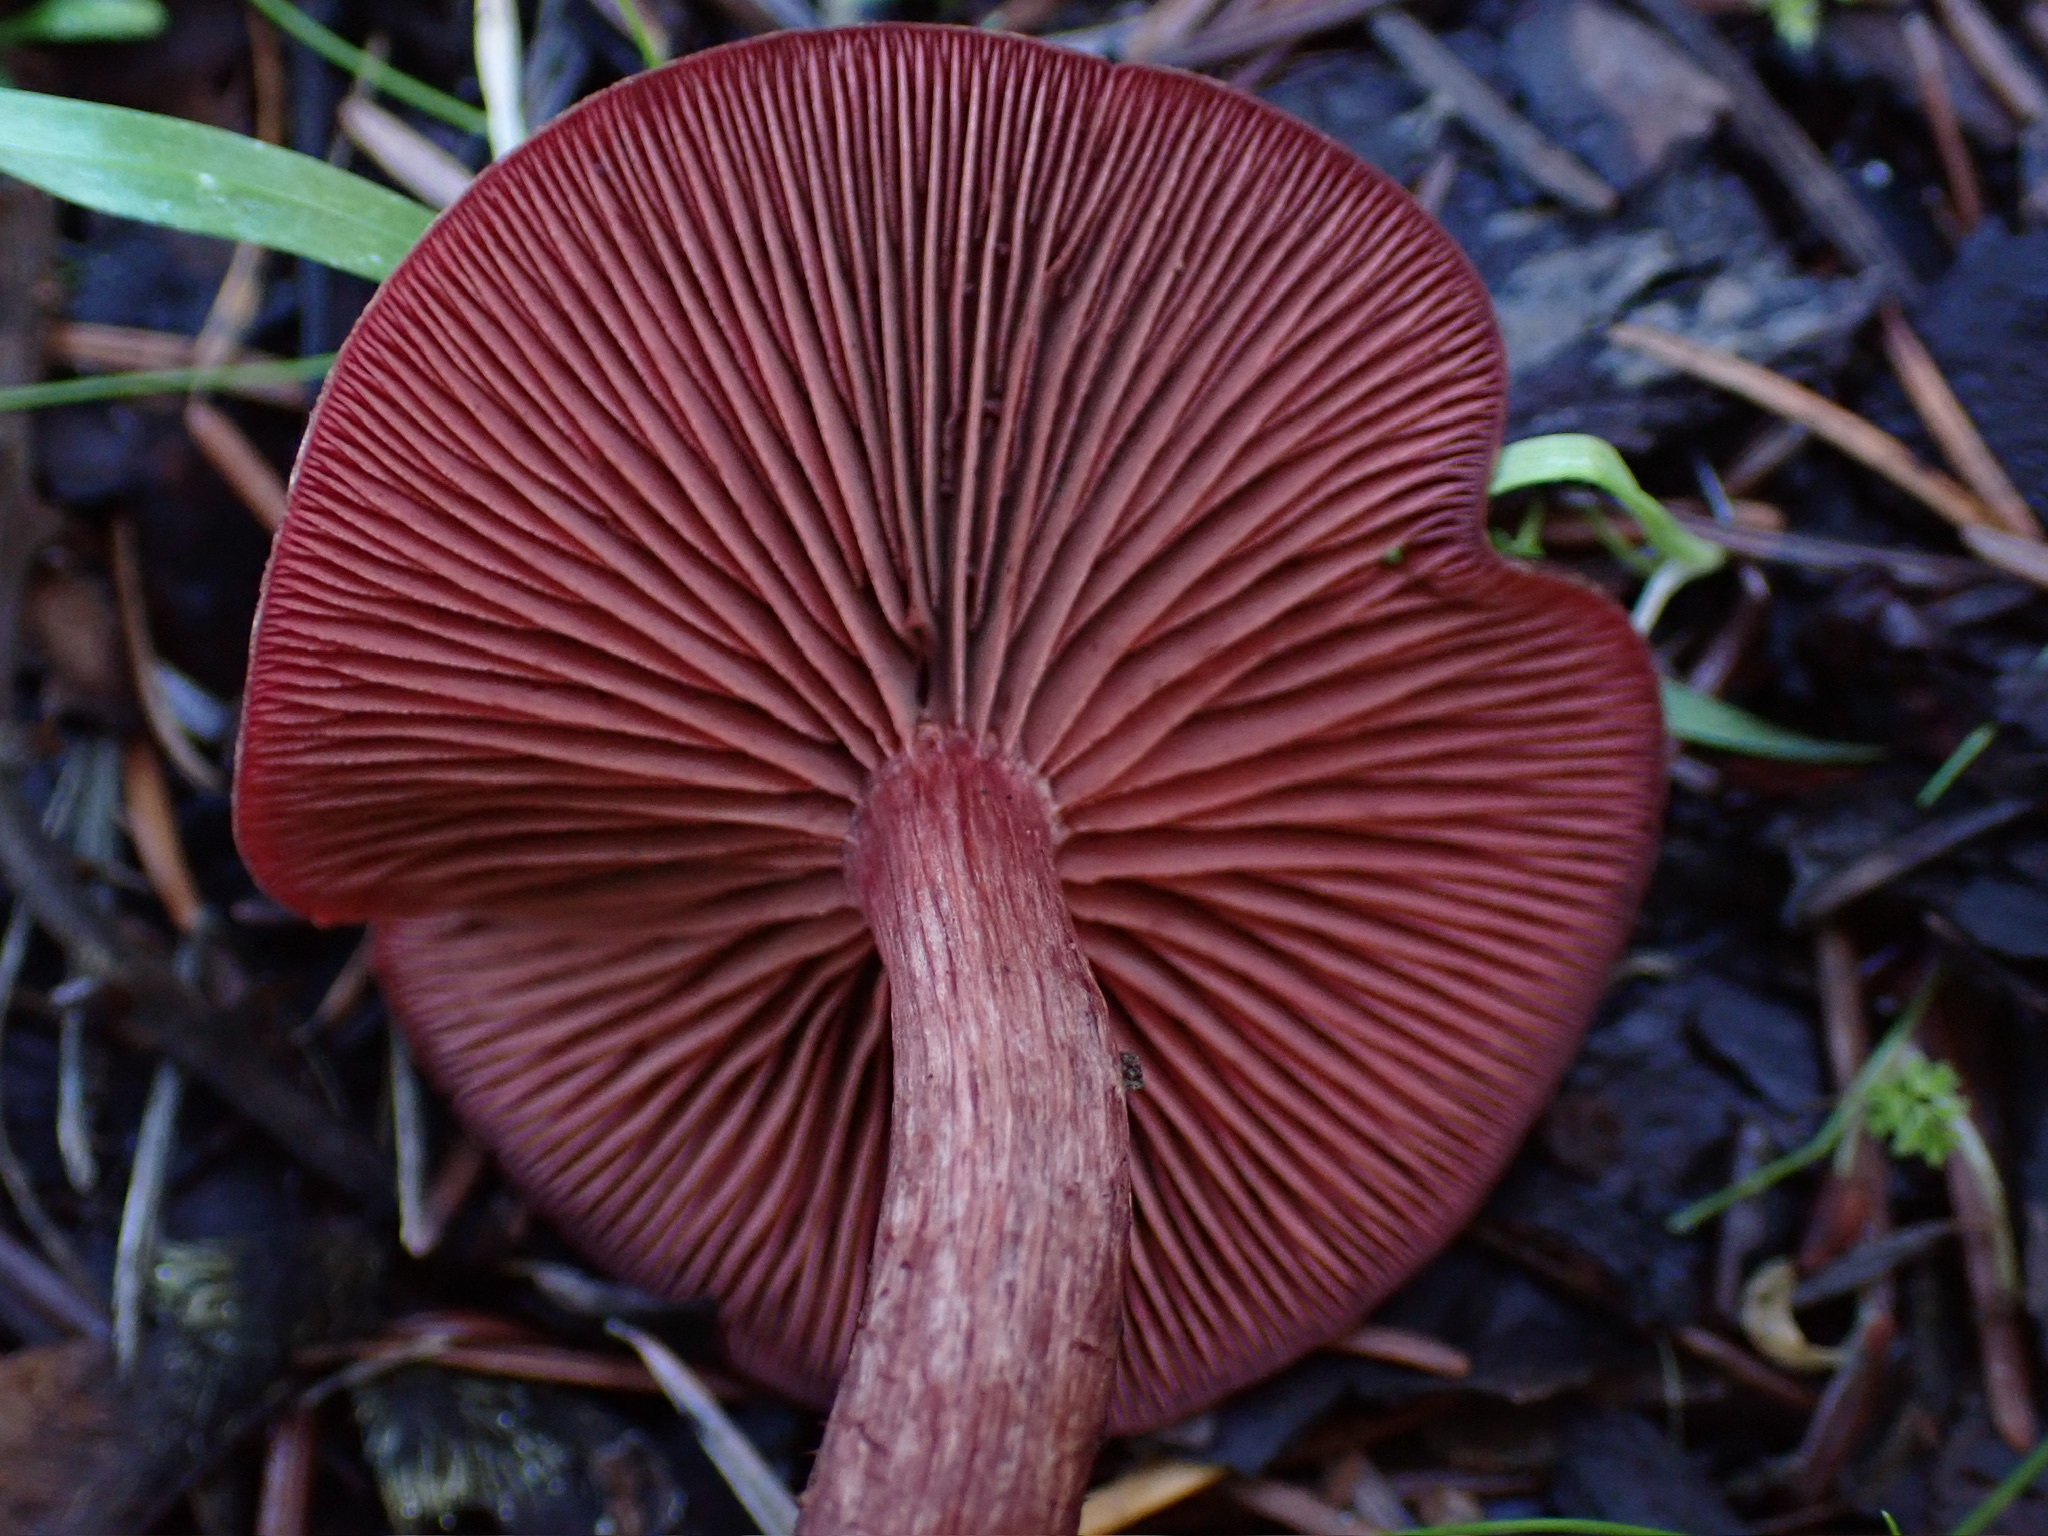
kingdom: Fungi
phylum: Basidiomycota
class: Agaricomycetes
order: Agaricales
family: Tubariaceae
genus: Tubaria
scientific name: Tubaria punicea
